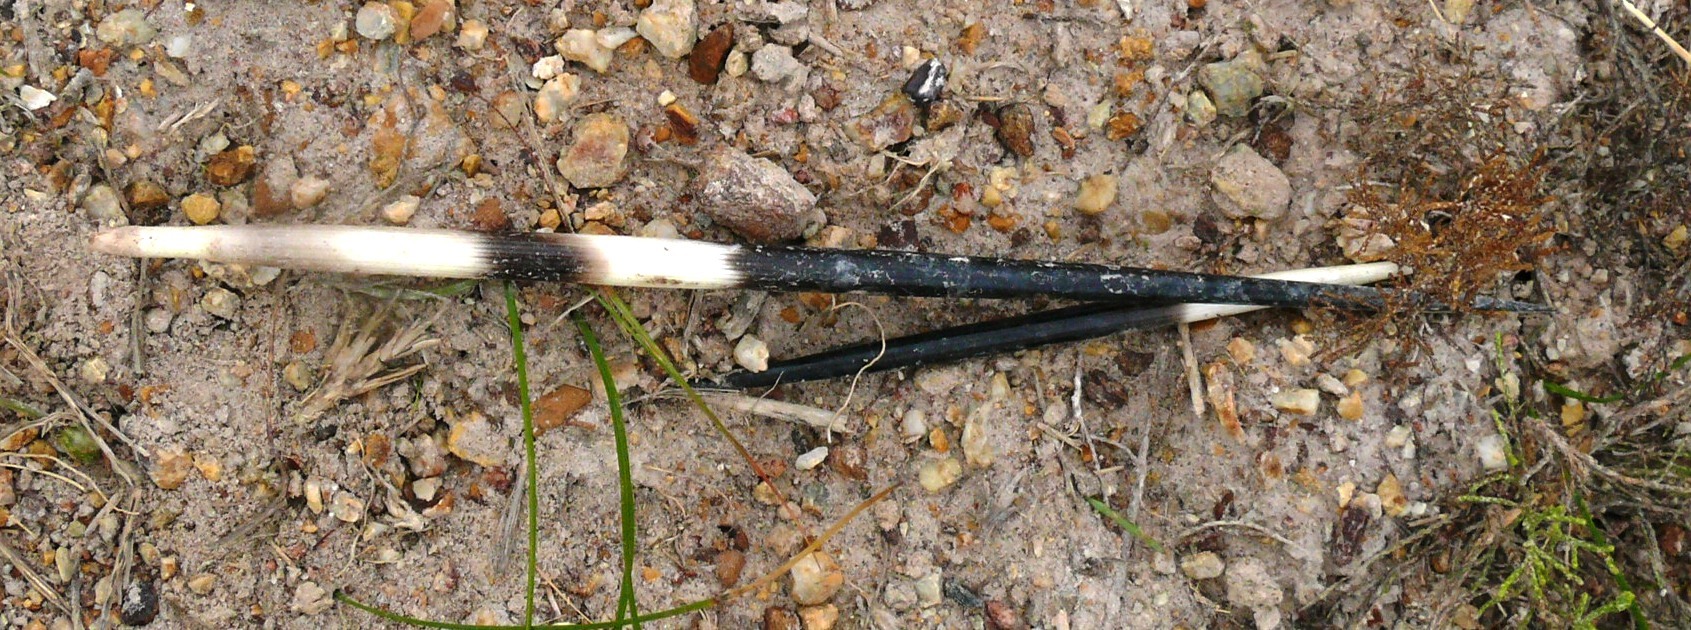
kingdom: Animalia
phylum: Chordata
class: Mammalia
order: Rodentia
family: Hystricidae
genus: Hystrix
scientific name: Hystrix africaeaustralis
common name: Cape porcupine
